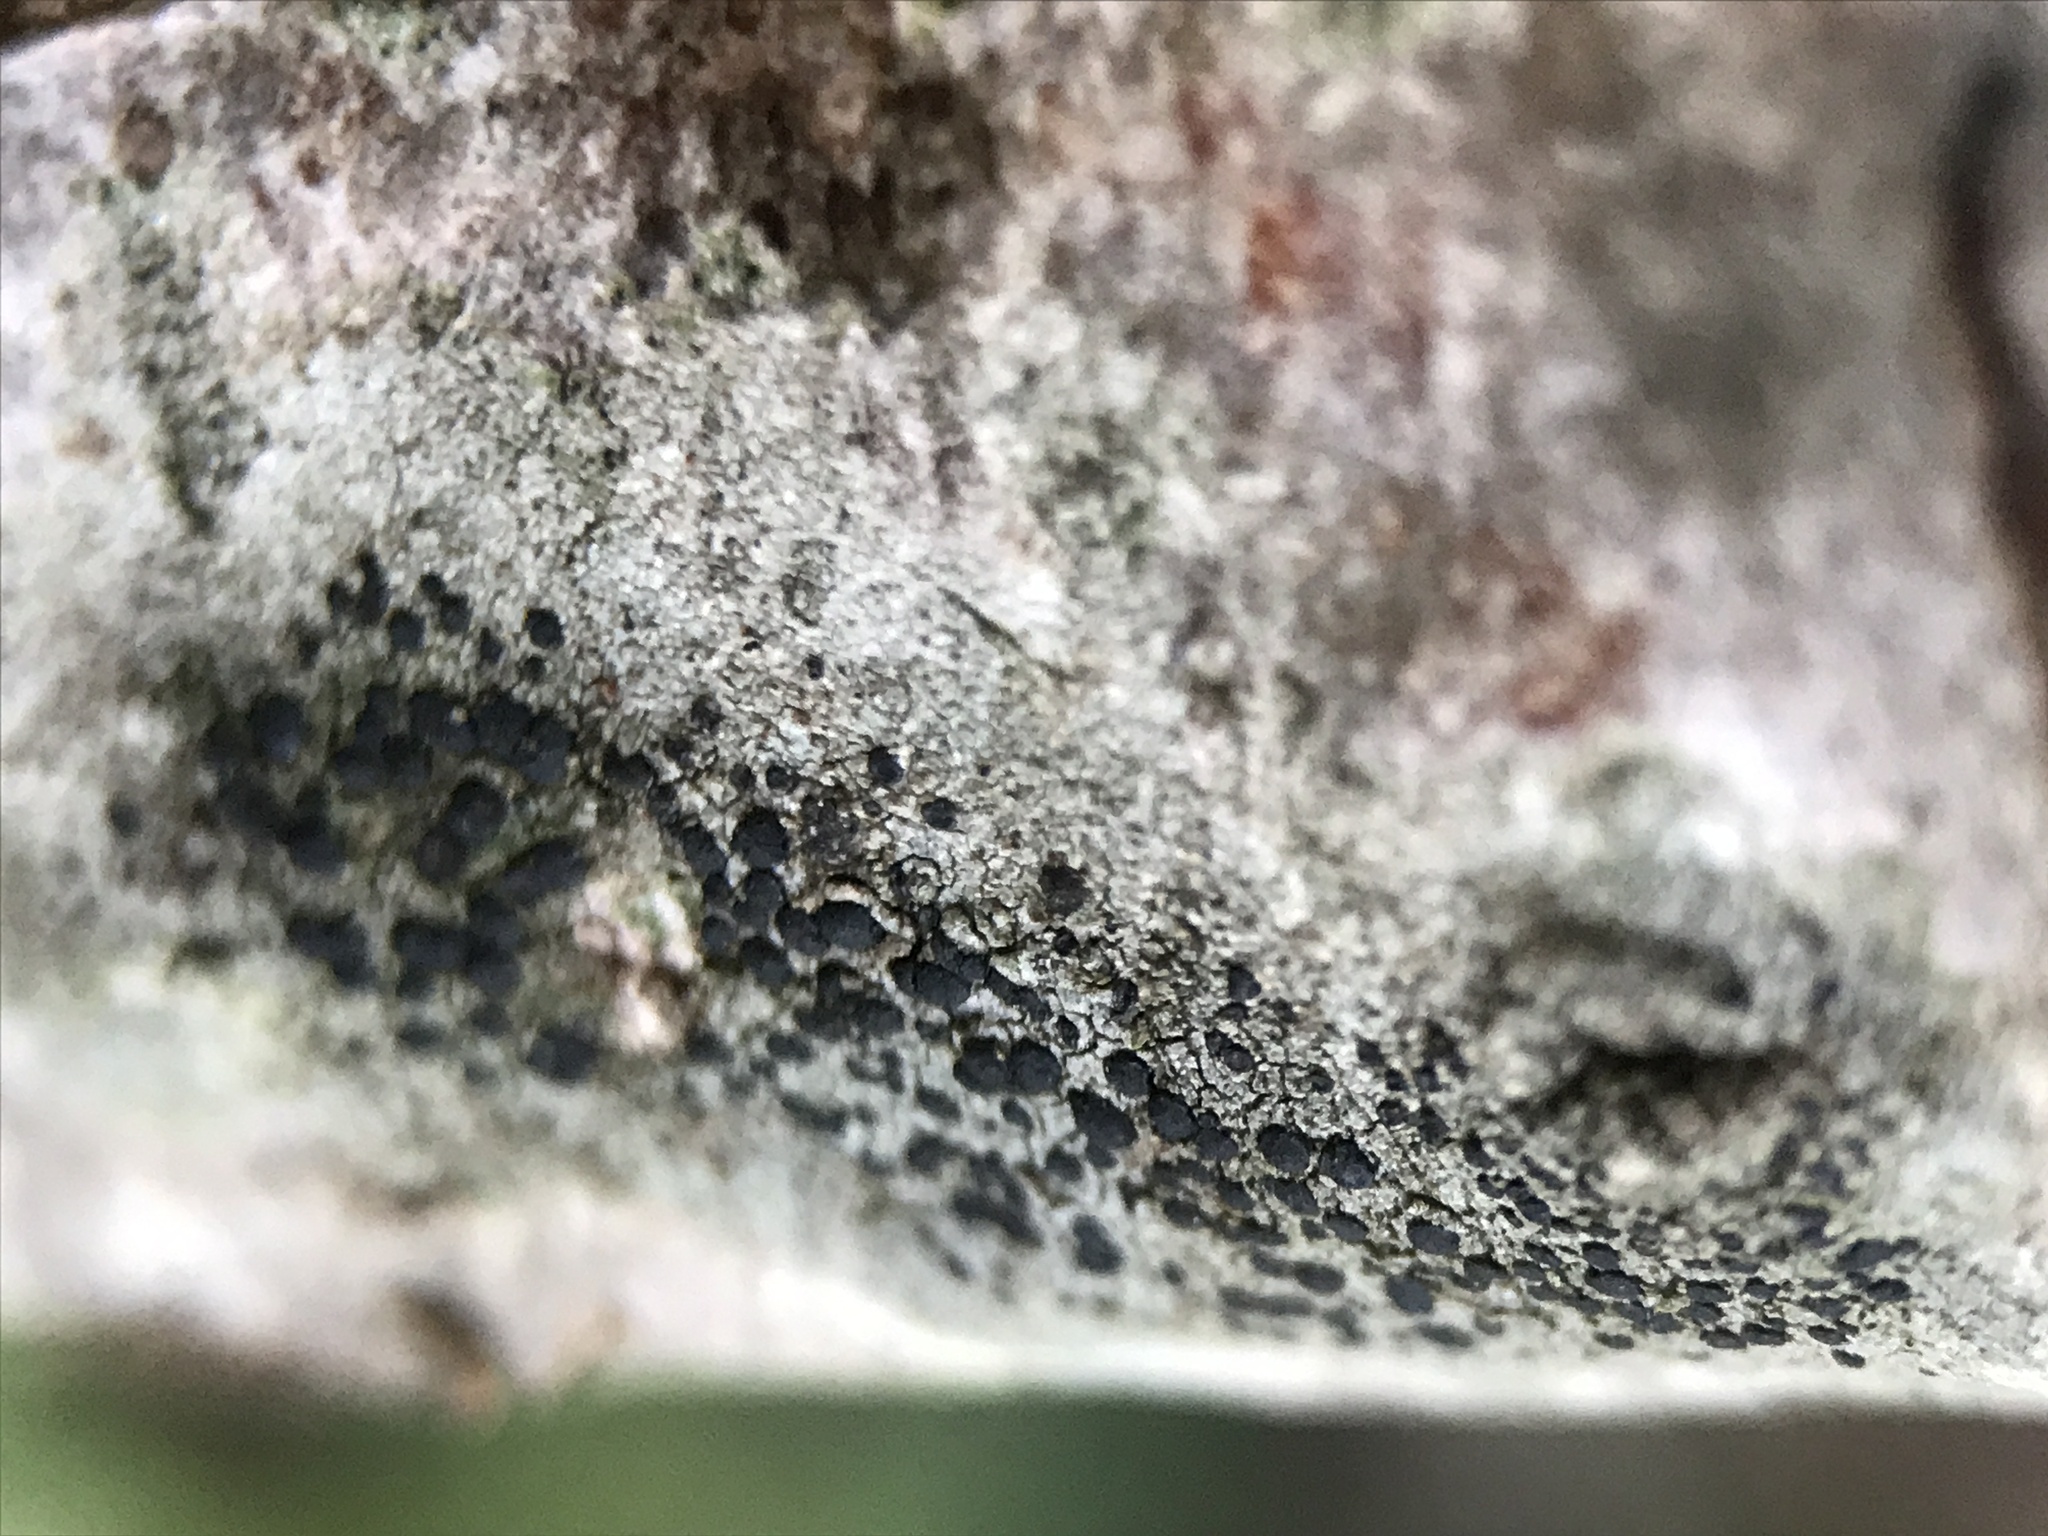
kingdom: Fungi
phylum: Ascomycota
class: Lecanoromycetes
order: Lecanorales
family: Lecanoraceae
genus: Lecidella
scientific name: Lecidella elaeochroma
